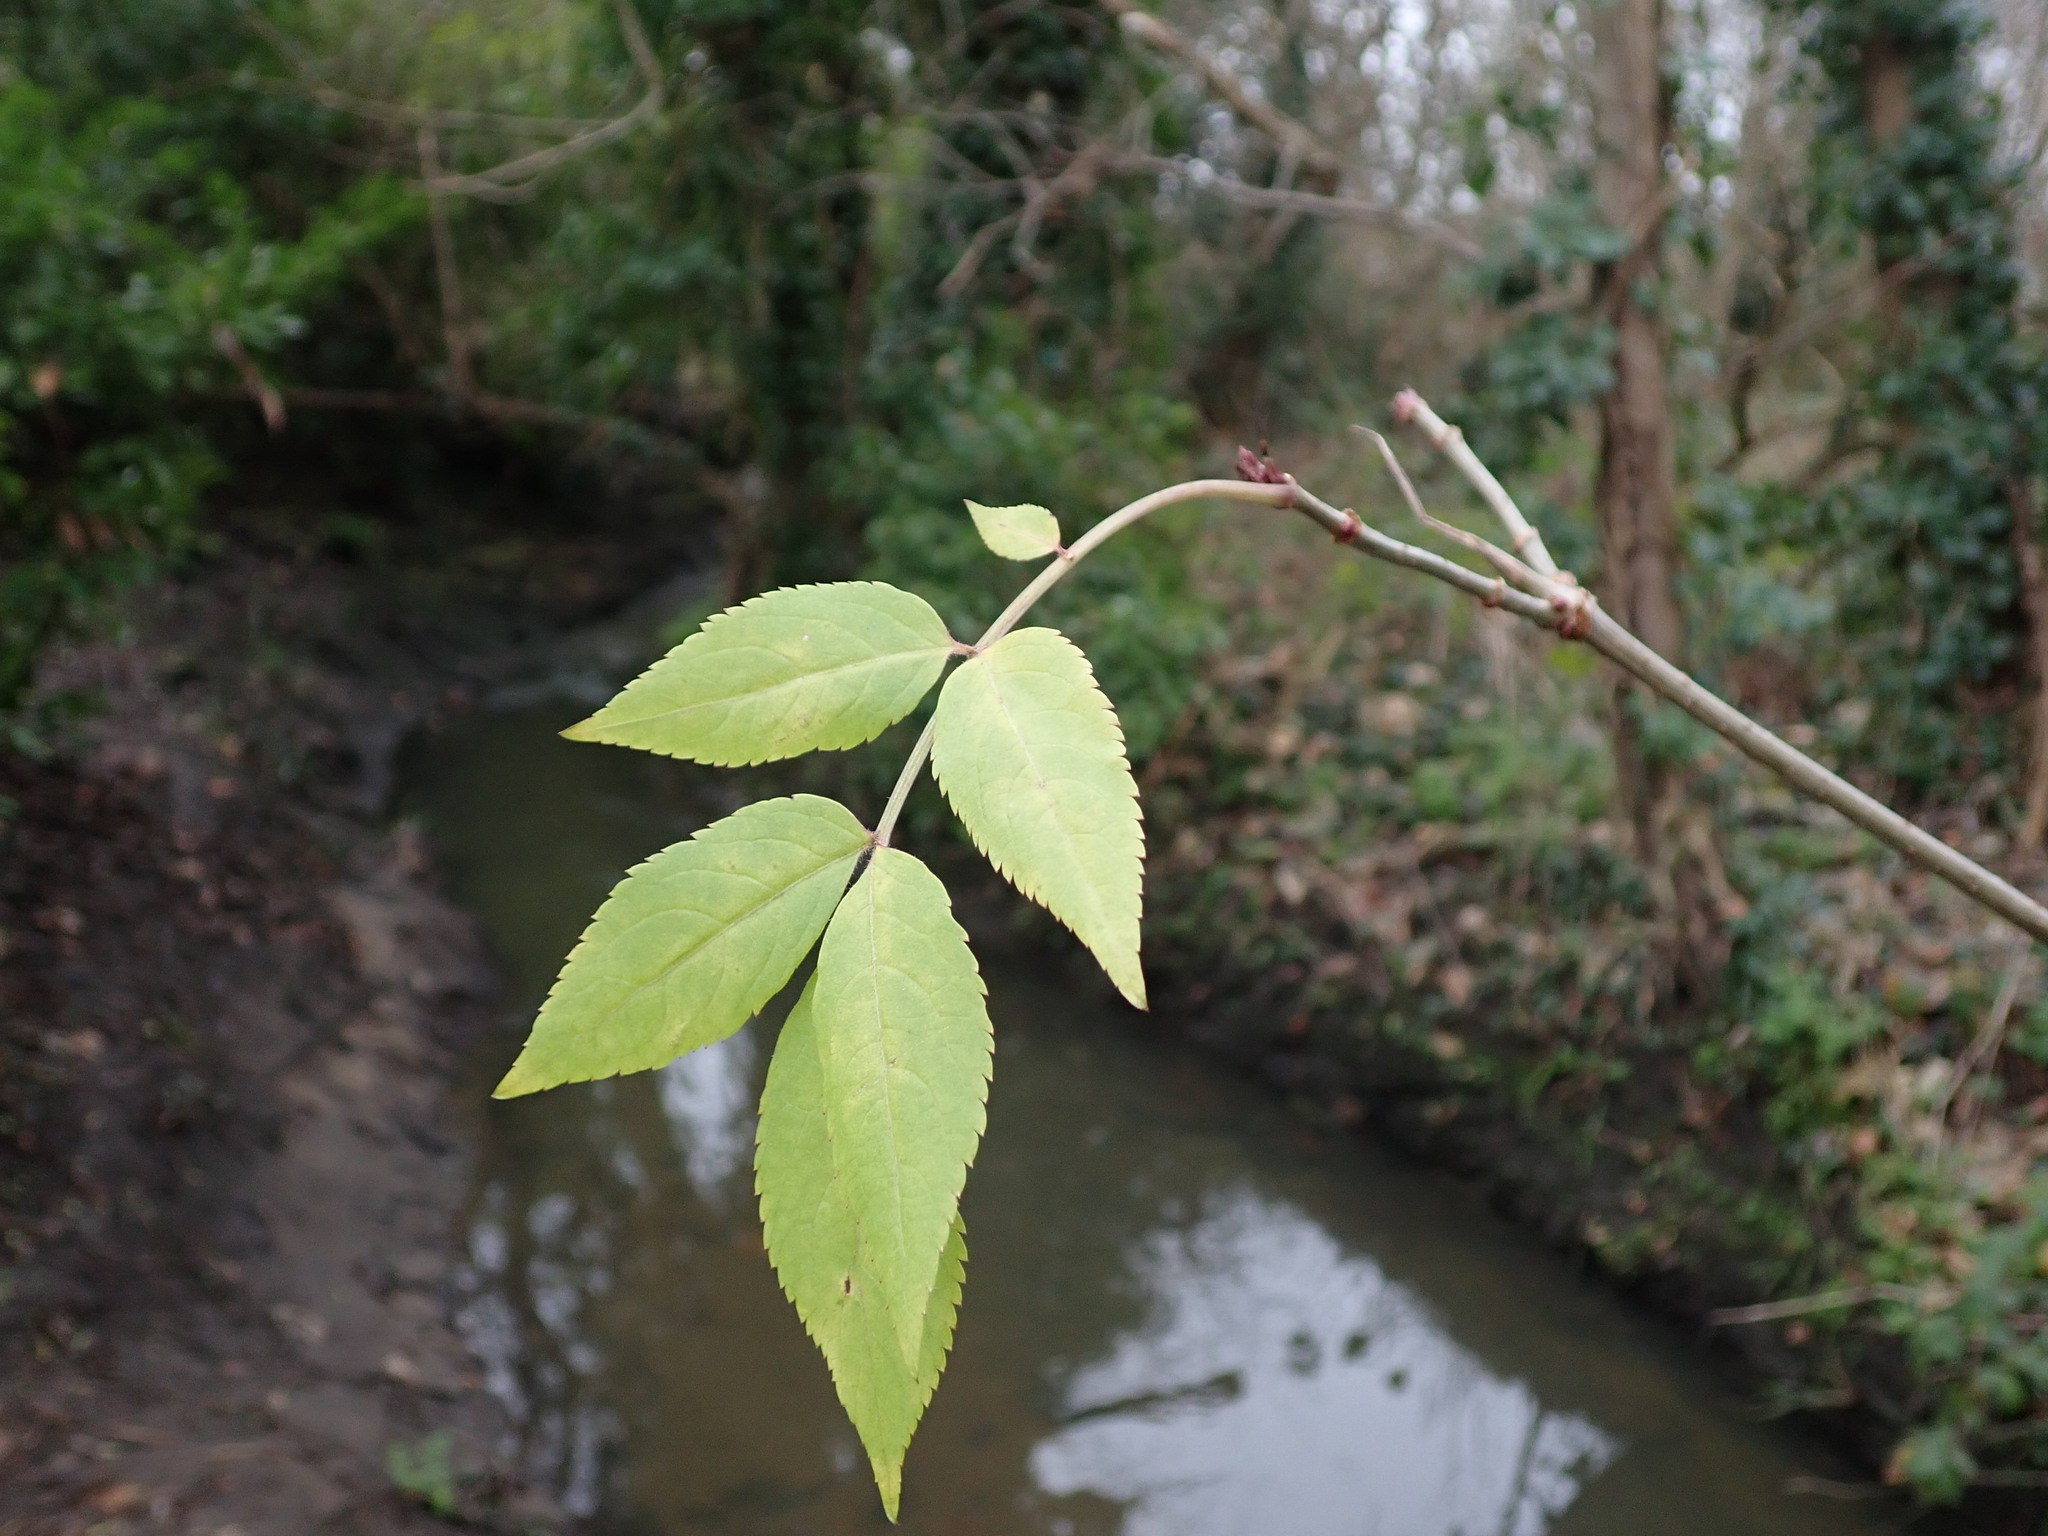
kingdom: Plantae
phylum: Tracheophyta
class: Magnoliopsida
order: Dipsacales
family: Viburnaceae
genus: Sambucus
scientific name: Sambucus nigra
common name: Elder
